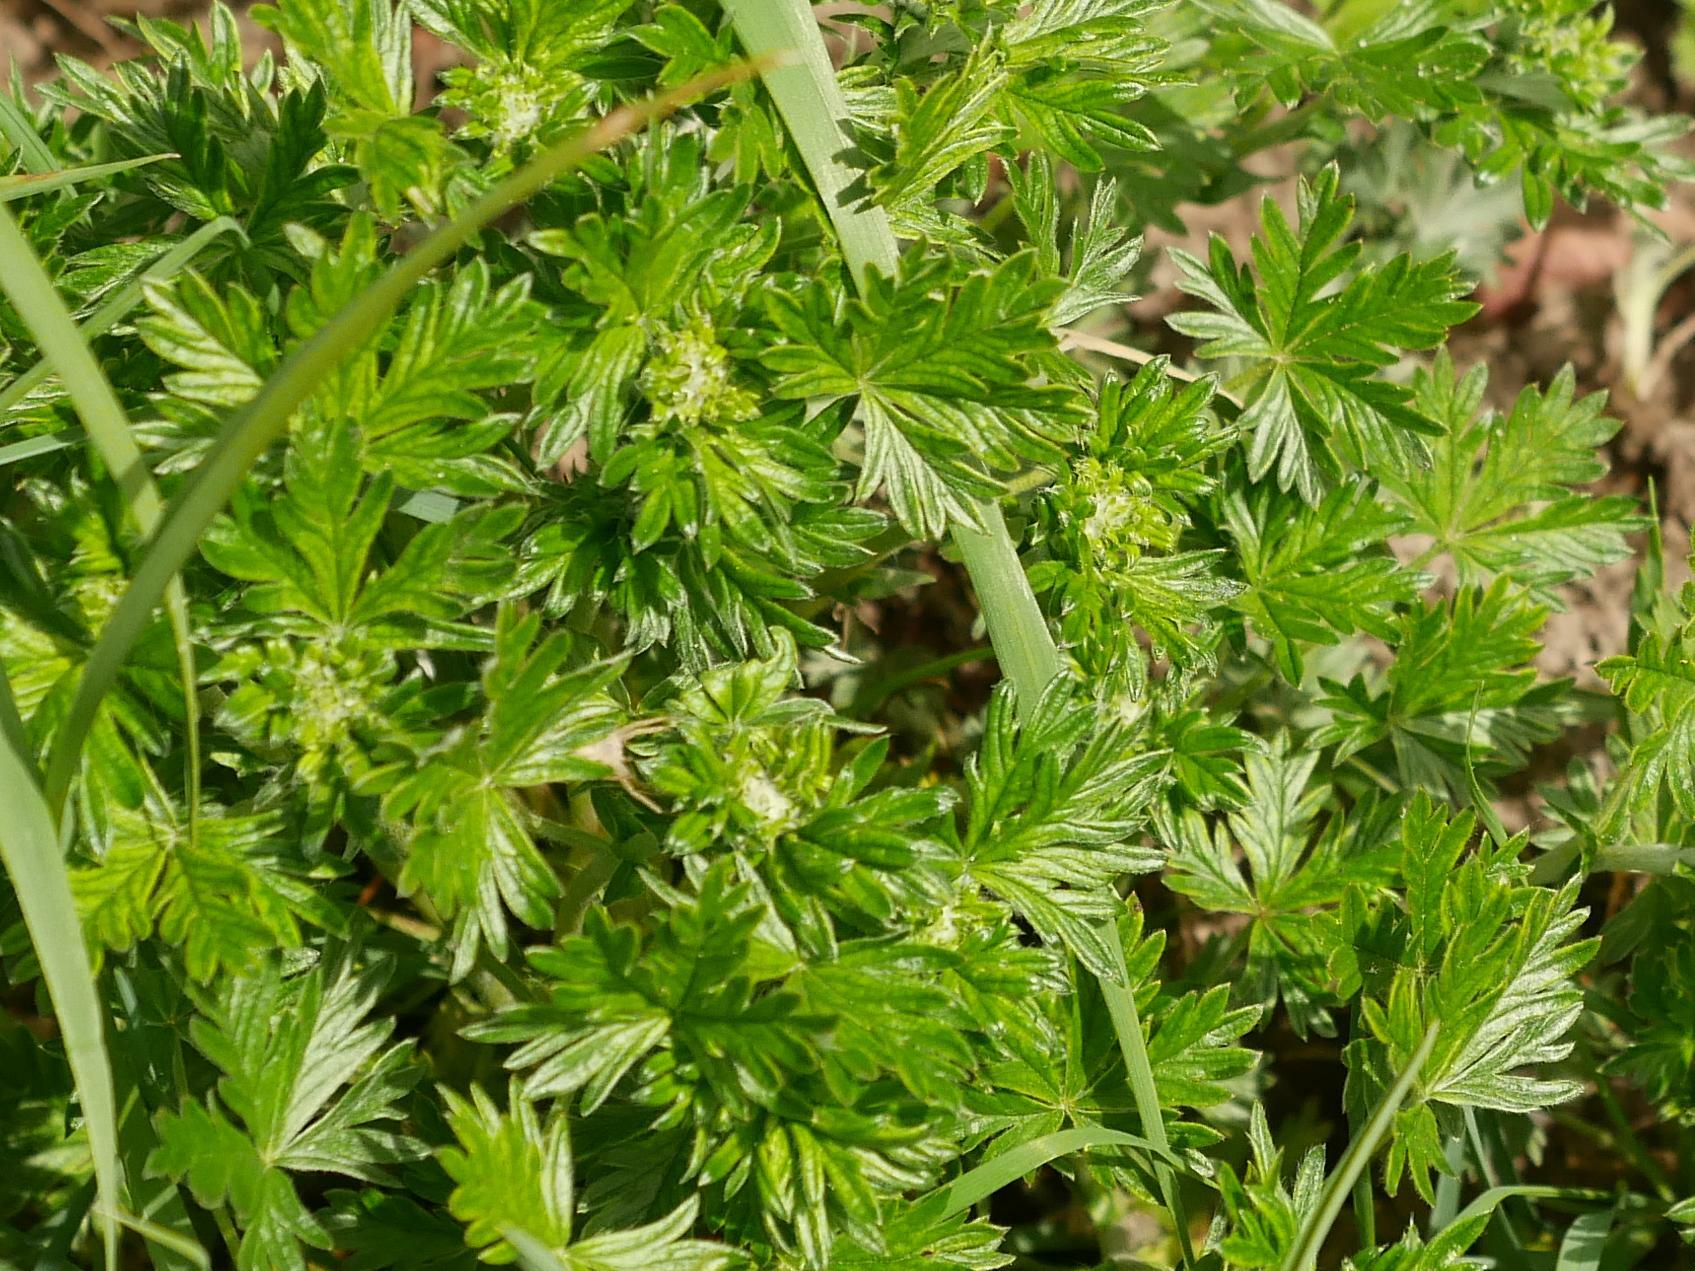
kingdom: Plantae
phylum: Tracheophyta
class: Magnoliopsida
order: Rosales
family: Rosaceae
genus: Potentilla
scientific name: Potentilla argentea
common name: Hoary cinquefoil
